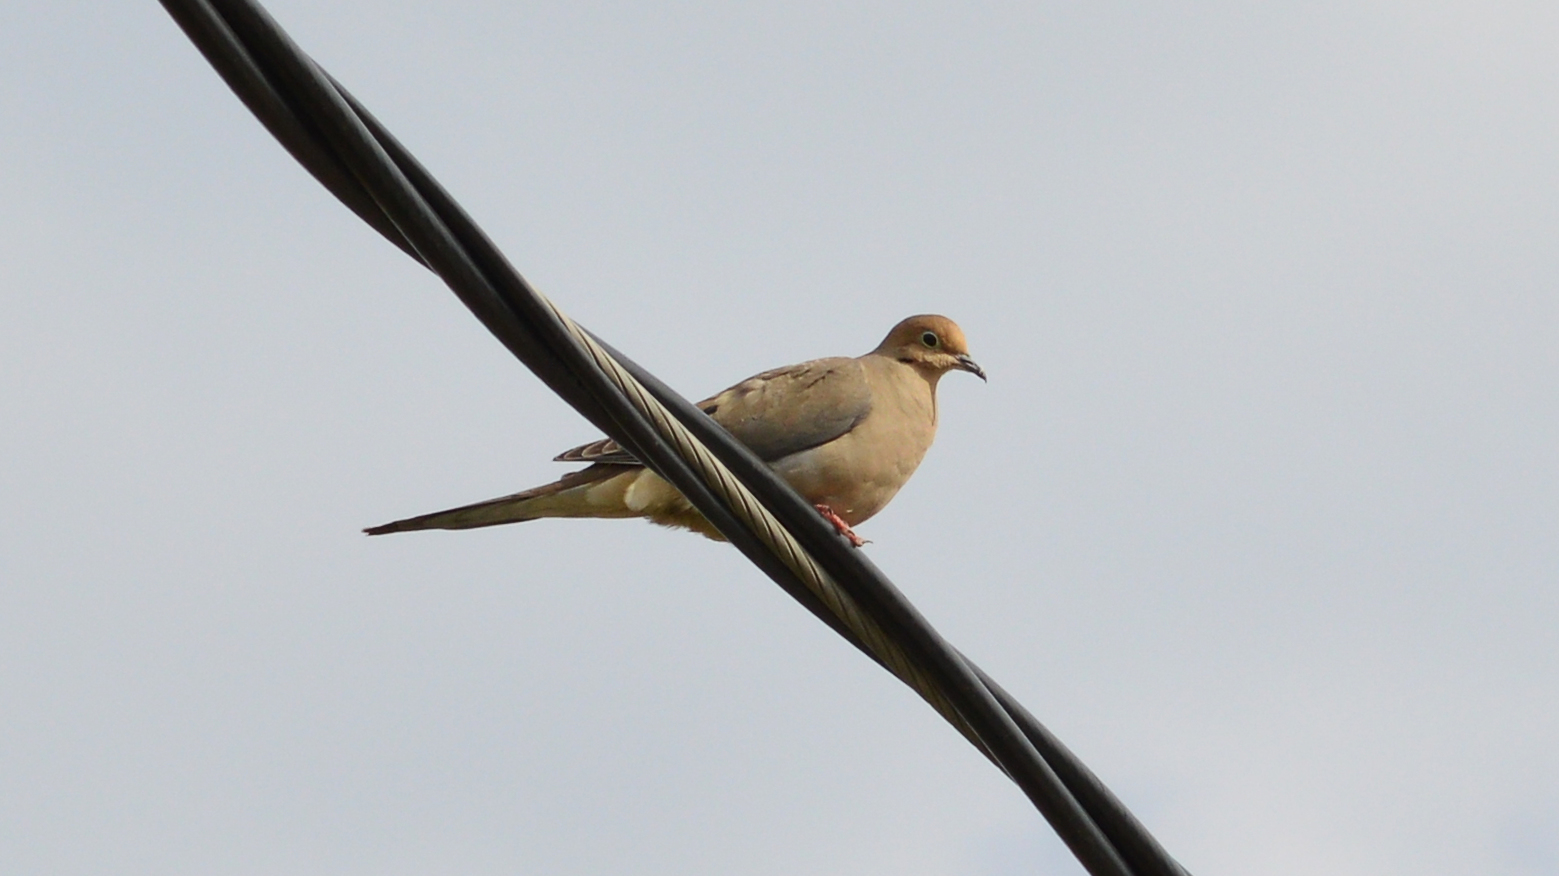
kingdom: Animalia
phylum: Chordata
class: Aves
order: Columbiformes
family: Columbidae
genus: Zenaida
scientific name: Zenaida macroura
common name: Mourning dove
